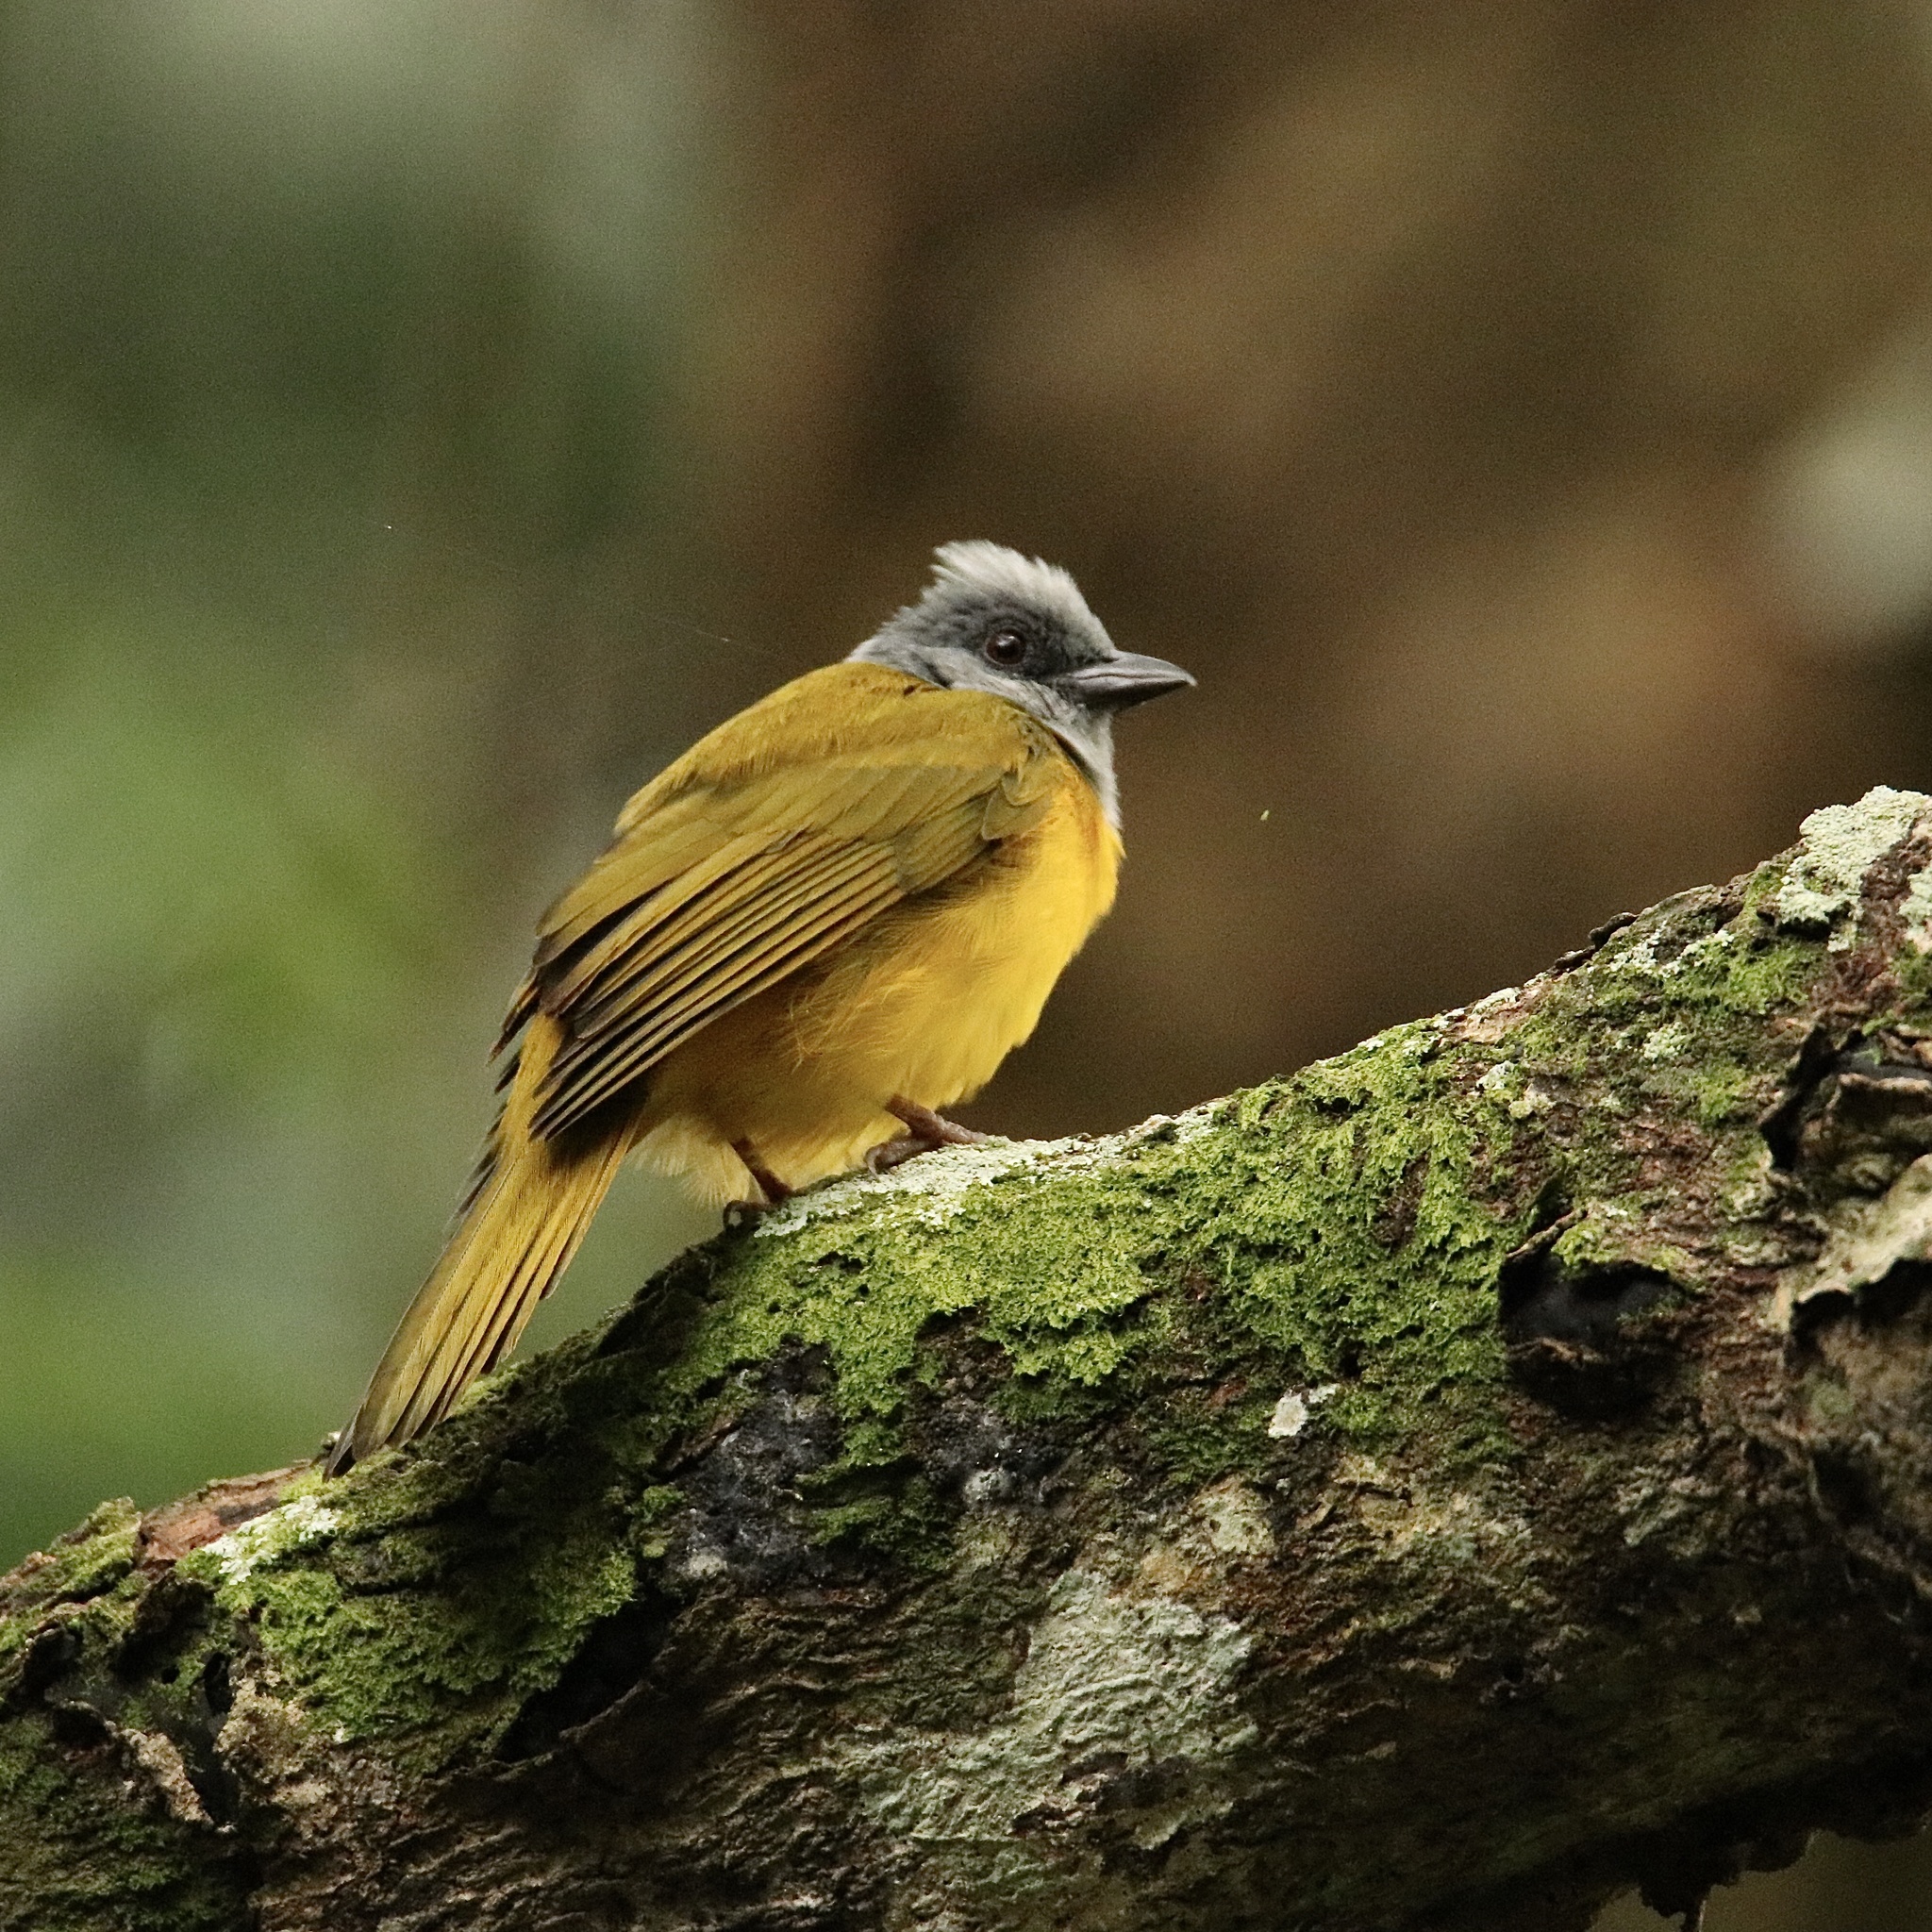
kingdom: Animalia
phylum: Chordata
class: Aves
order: Passeriformes
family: Thraupidae
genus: Eucometis
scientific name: Eucometis penicillata
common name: Grey-headed tanager
